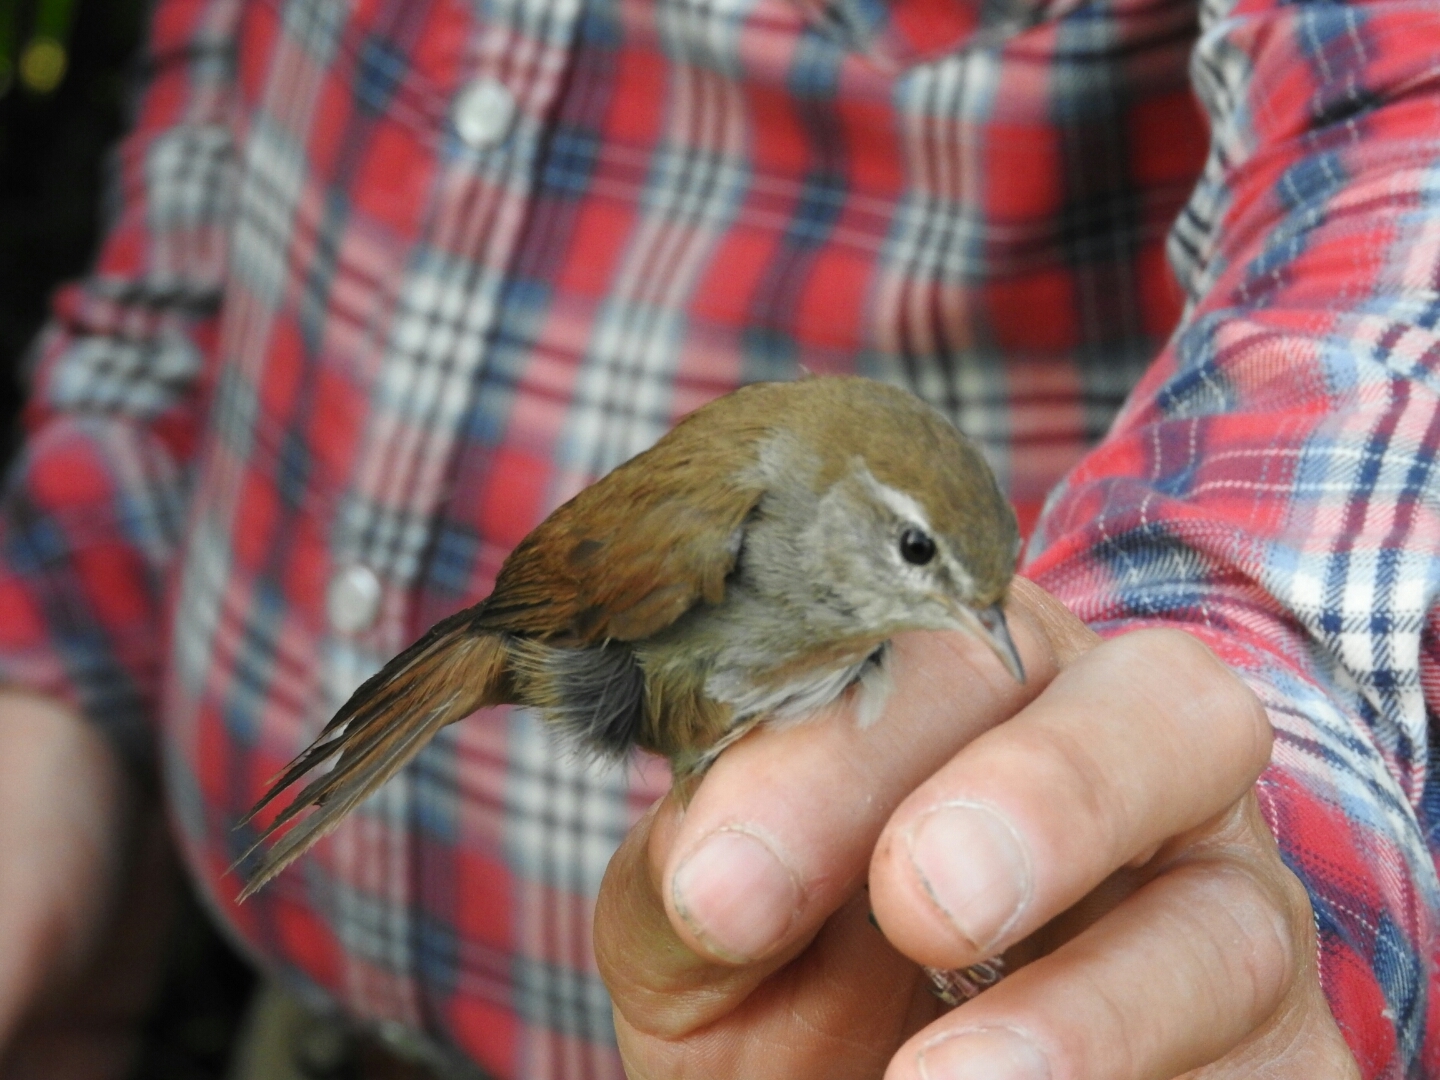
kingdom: Animalia
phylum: Chordata
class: Aves
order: Passeriformes
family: Cettiidae
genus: Cettia
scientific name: Cettia cetti
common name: Cetti's warbler
